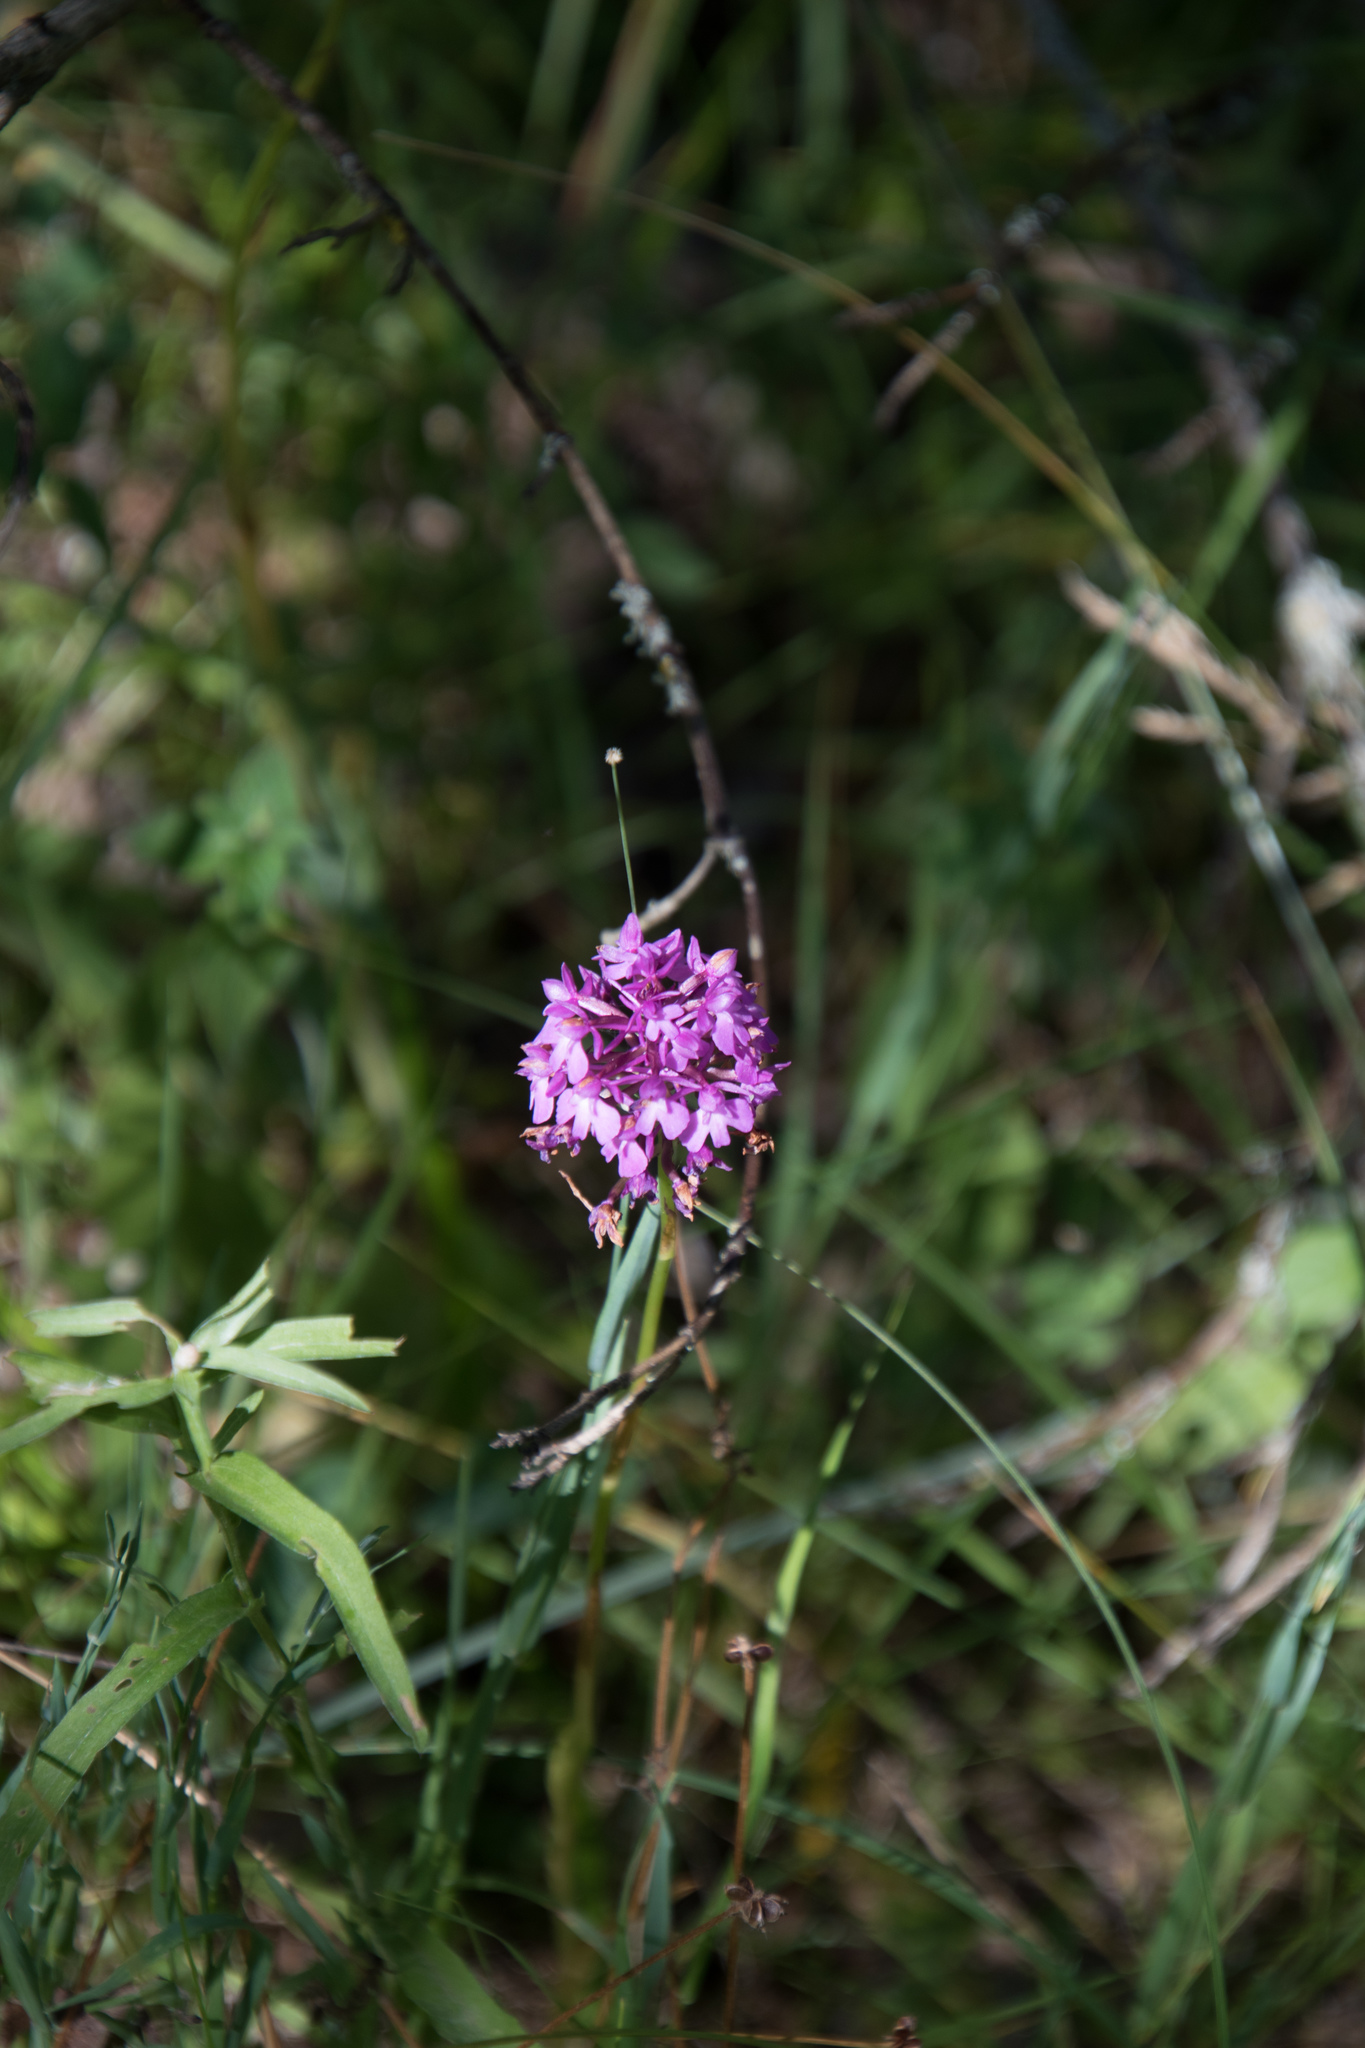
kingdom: Plantae
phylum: Tracheophyta
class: Liliopsida
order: Asparagales
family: Orchidaceae
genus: Anacamptis
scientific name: Anacamptis pyramidalis
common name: Pyramidal orchid
